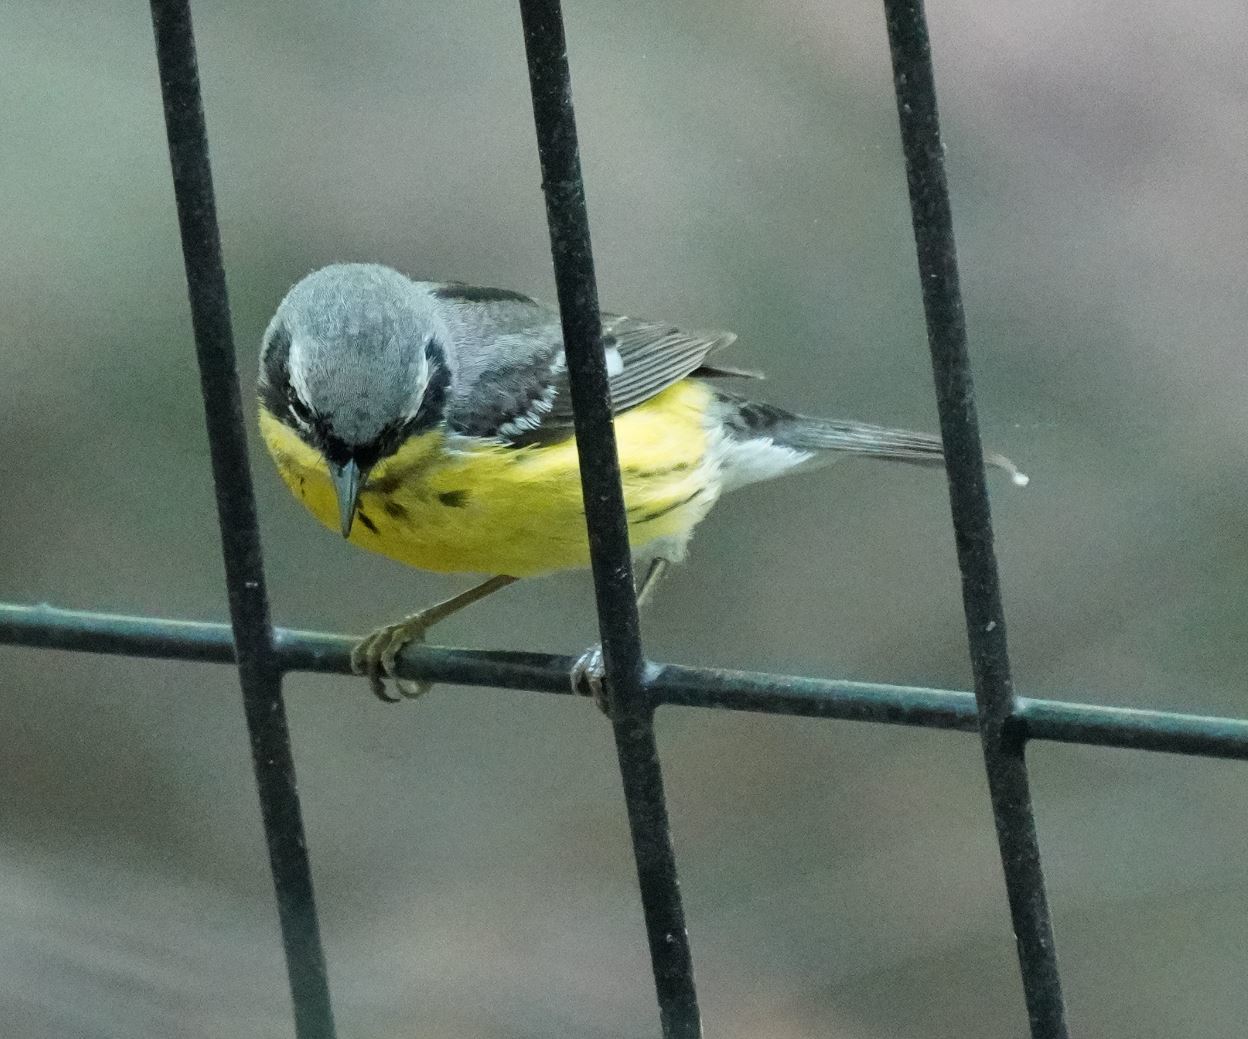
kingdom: Animalia
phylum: Chordata
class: Aves
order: Passeriformes
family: Parulidae
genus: Setophaga
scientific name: Setophaga magnolia
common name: Magnolia warbler
